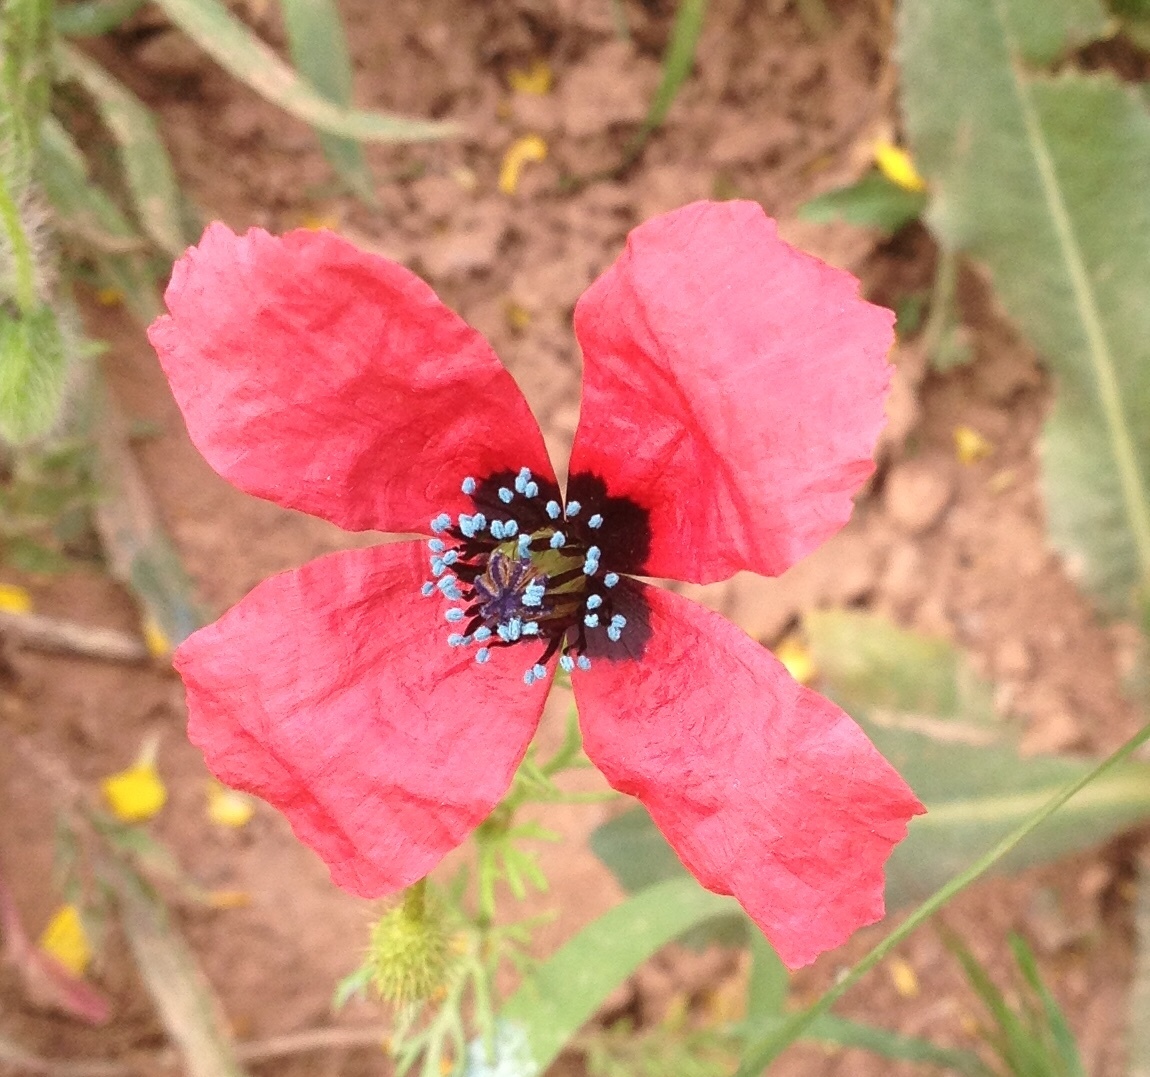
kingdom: Plantae
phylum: Tracheophyta
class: Magnoliopsida
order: Ranunculales
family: Papaveraceae
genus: Roemeria
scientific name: Roemeria hispida
